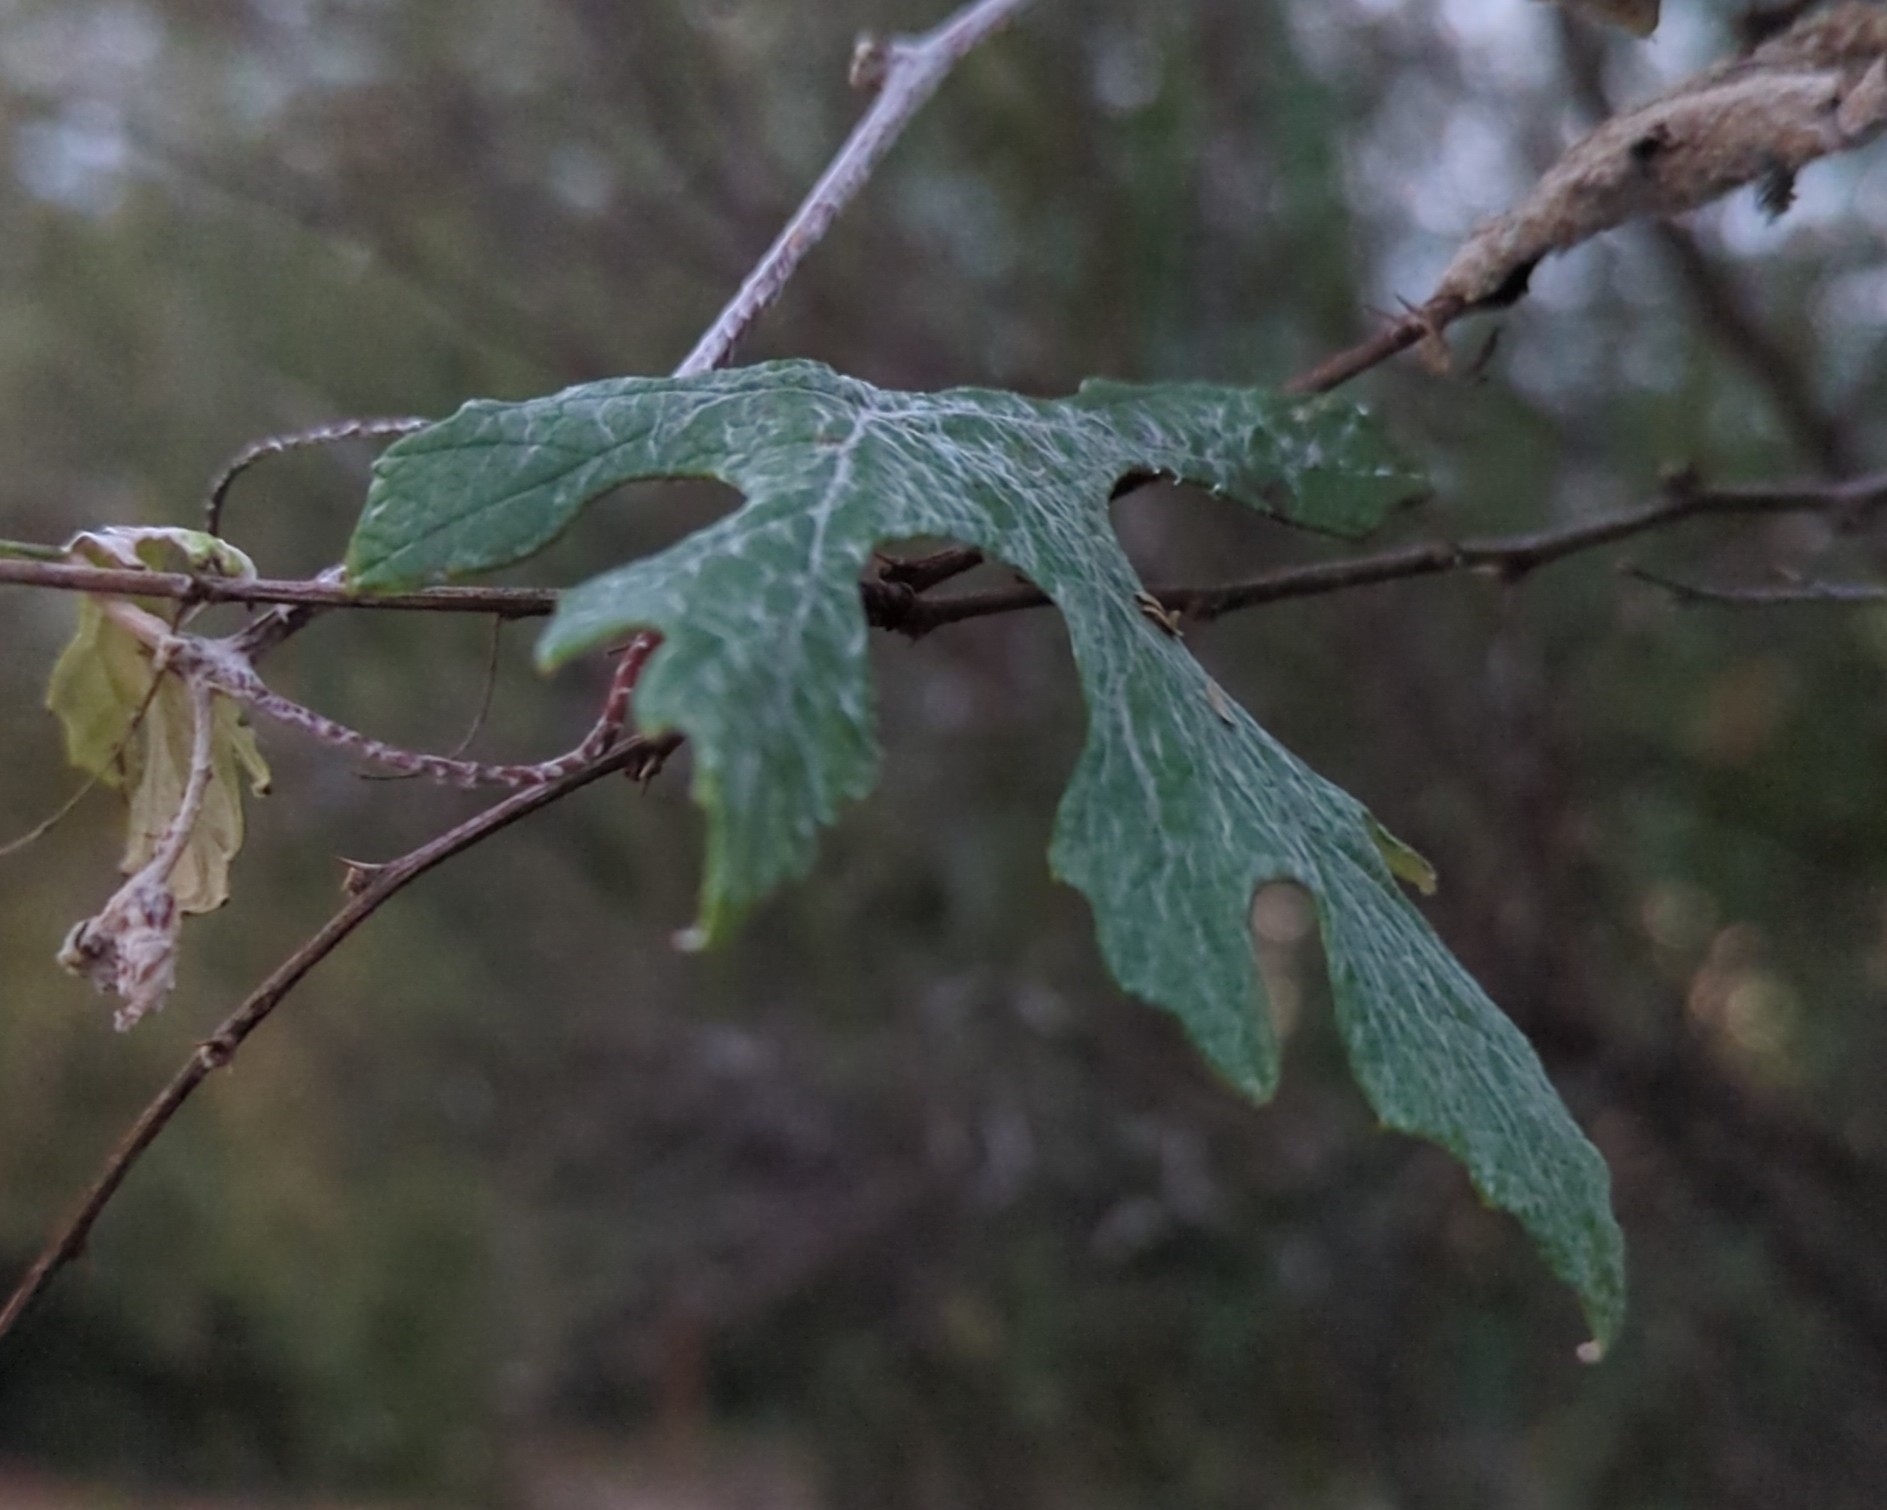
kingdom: Plantae
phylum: Tracheophyta
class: Magnoliopsida
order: Vitales
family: Vitaceae
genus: Vitis
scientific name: Vitis mustangensis
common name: Mustang grape
